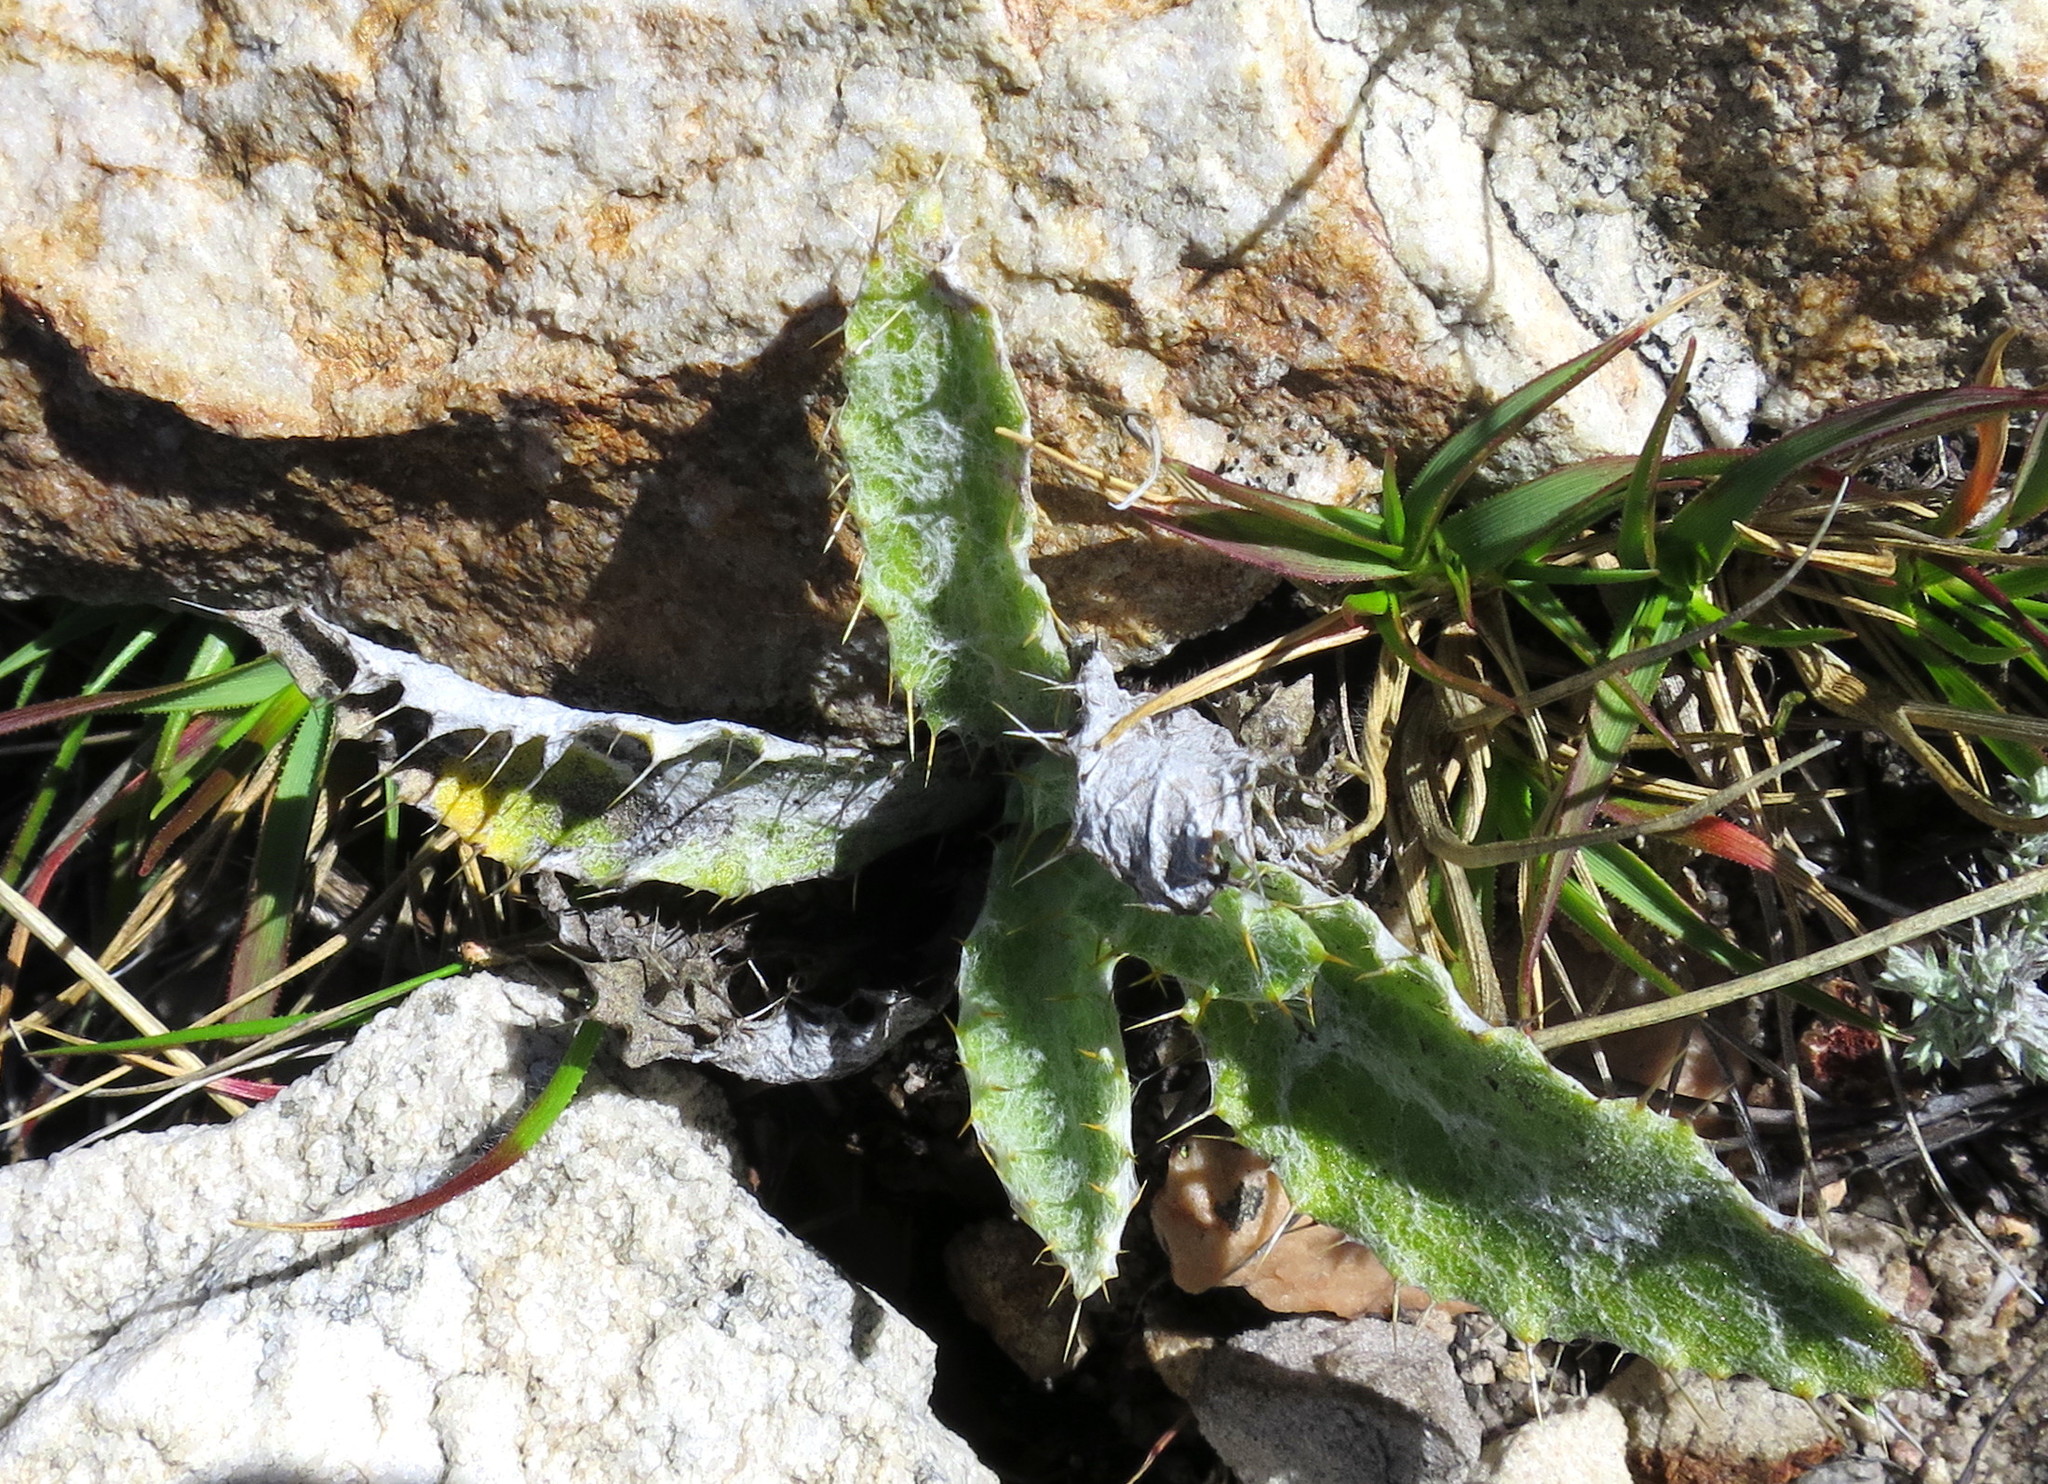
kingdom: Plantae
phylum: Tracheophyta
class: Magnoliopsida
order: Asterales
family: Asteraceae
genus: Berkheya
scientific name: Berkheya francisci
